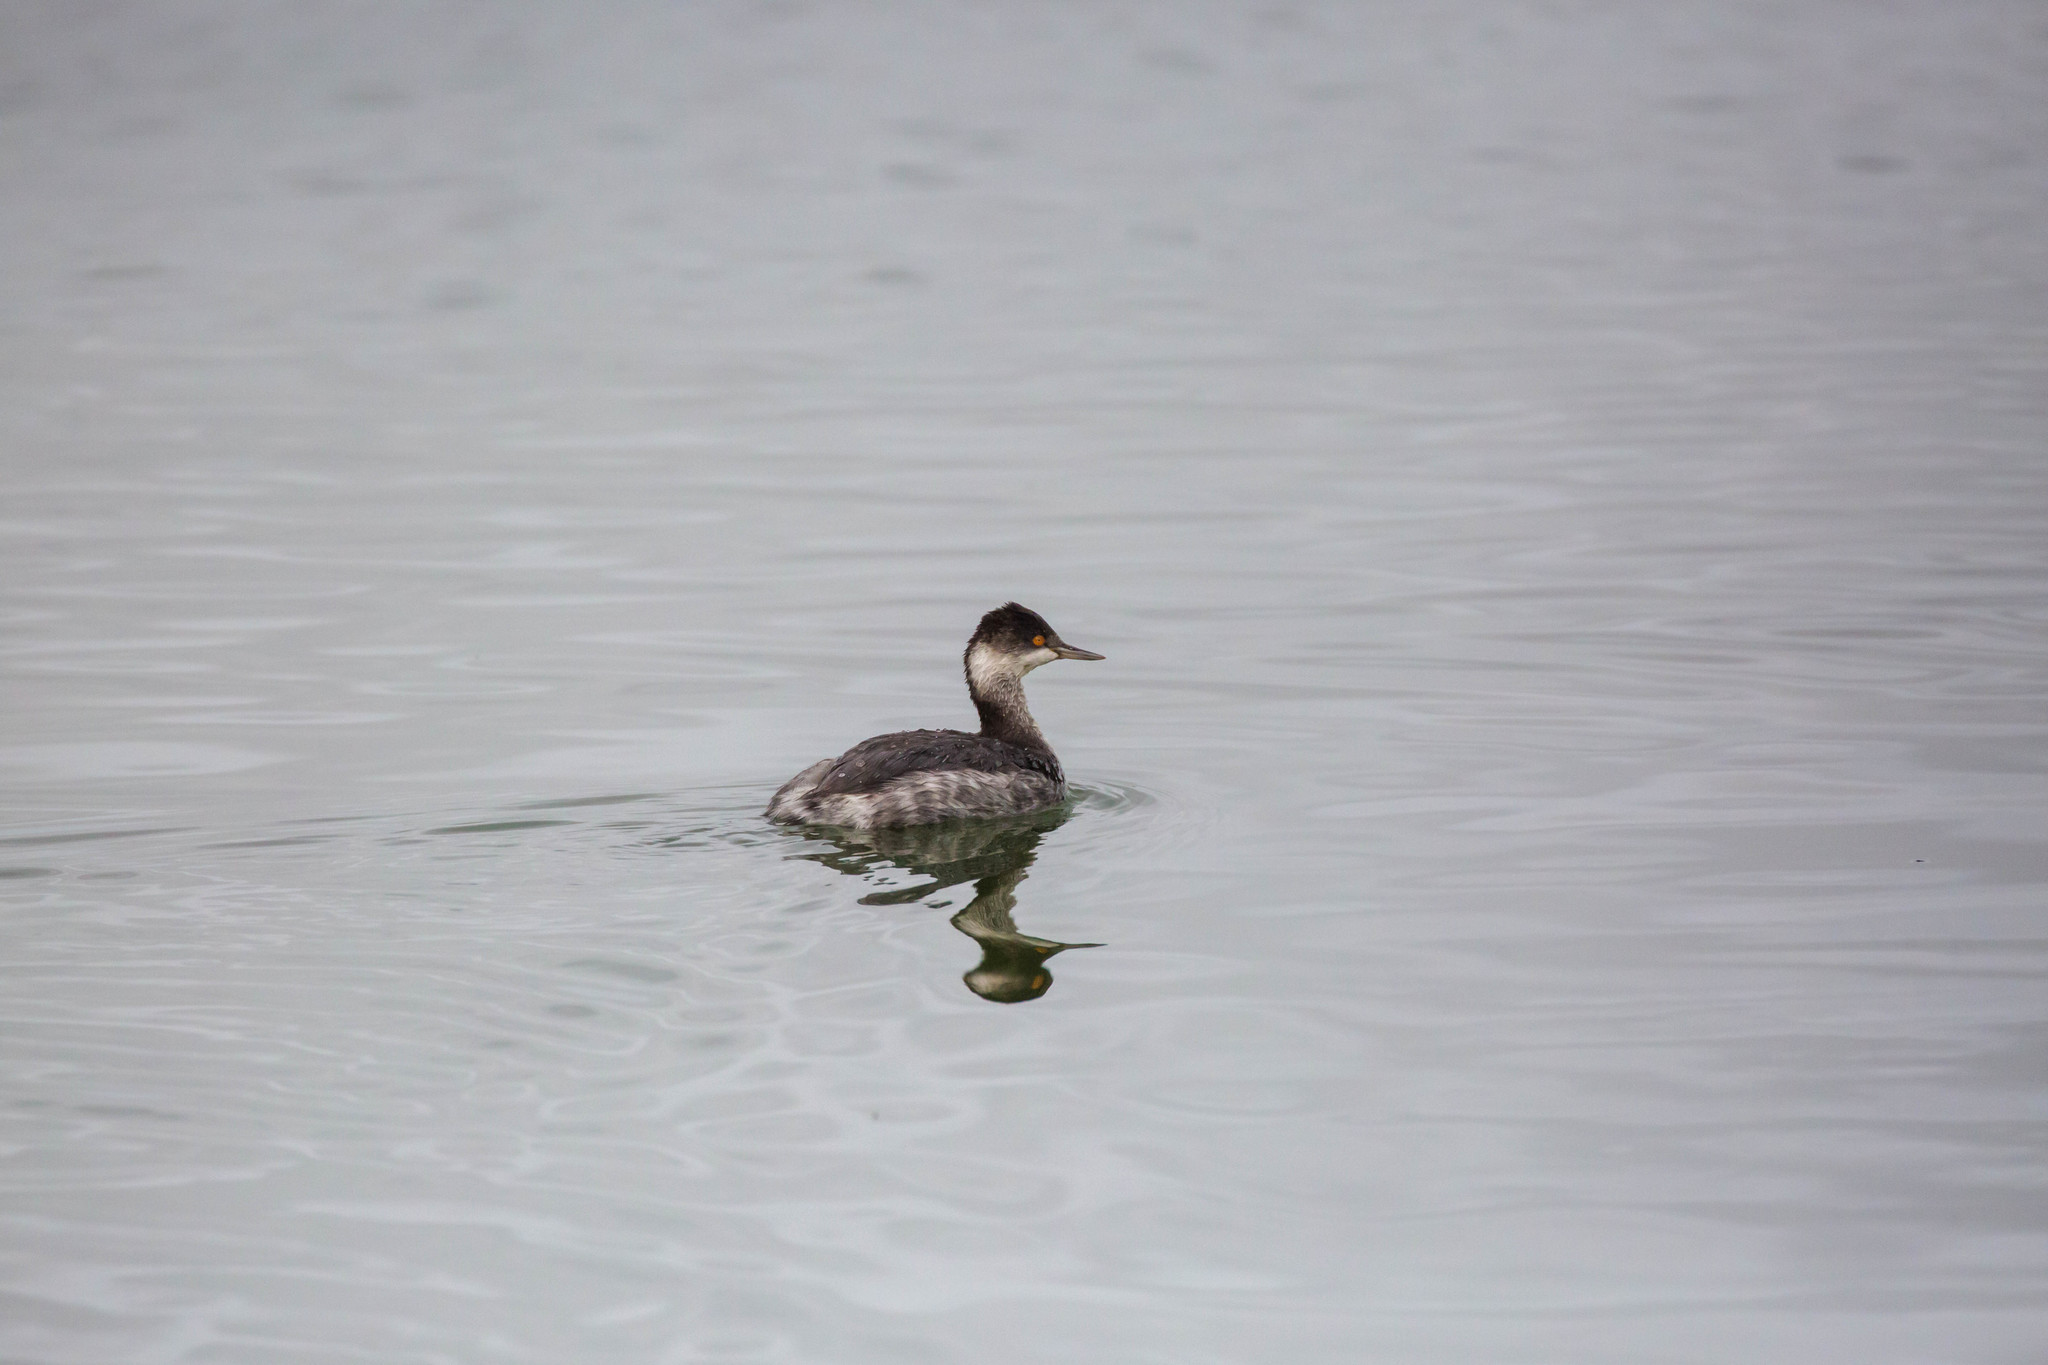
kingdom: Animalia
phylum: Chordata
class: Aves
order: Podicipediformes
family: Podicipedidae
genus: Podiceps
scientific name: Podiceps nigricollis
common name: Black-necked grebe
